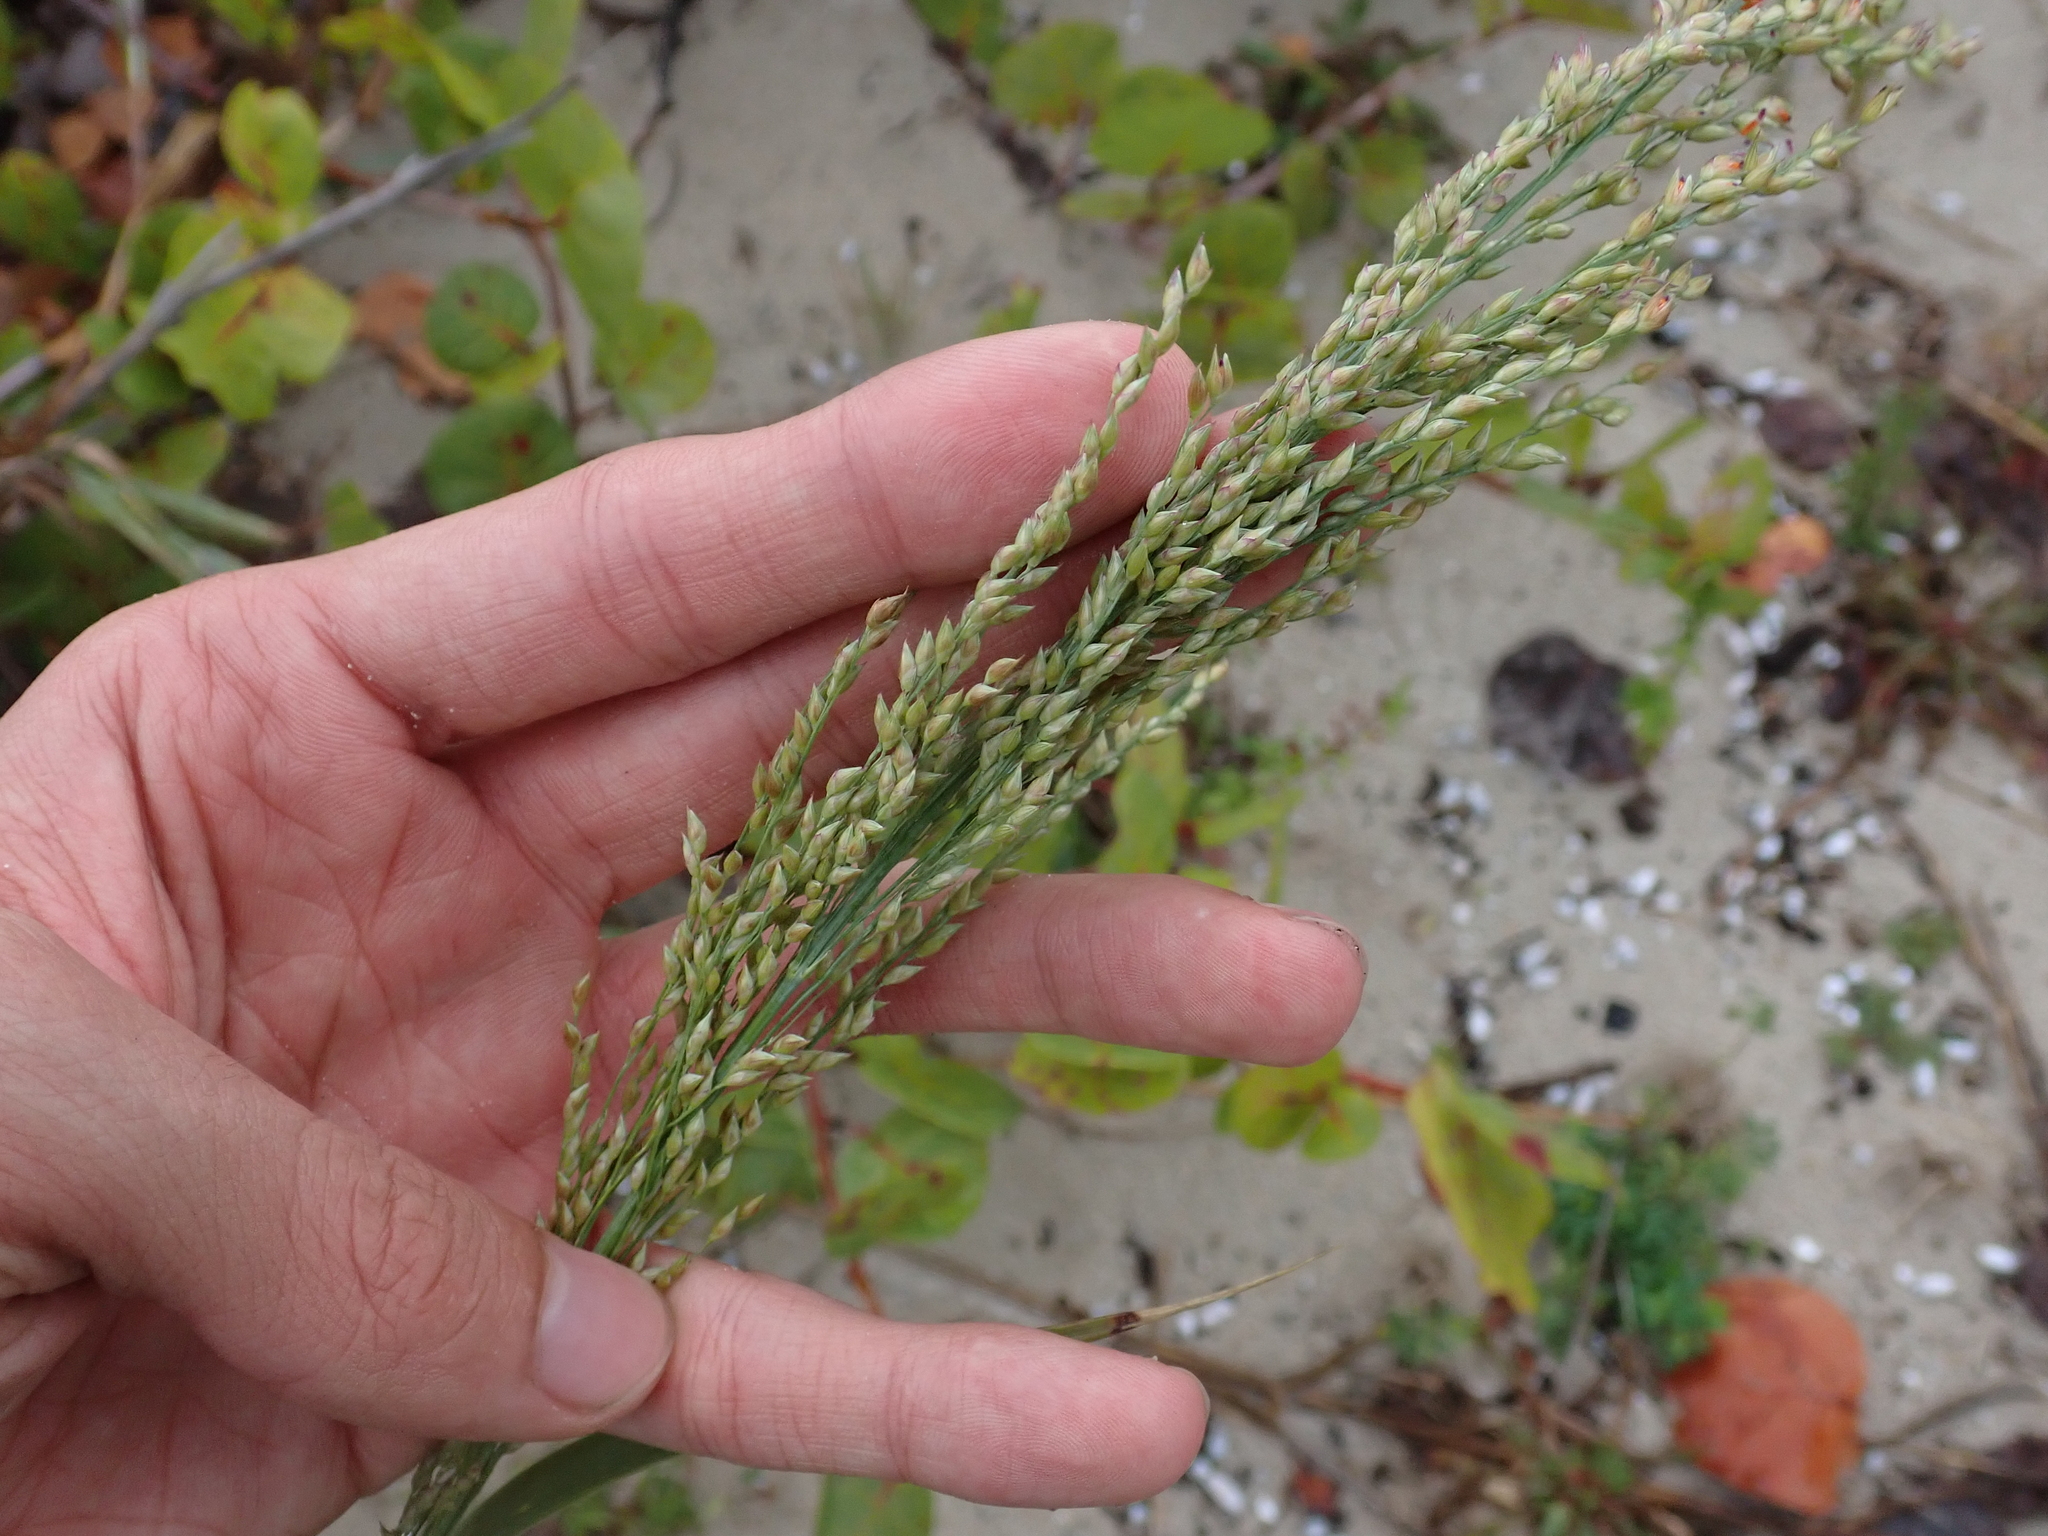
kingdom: Plantae
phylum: Tracheophyta
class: Liliopsida
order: Poales
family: Poaceae
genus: Panicum
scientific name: Panicum amarum
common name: Bitter panicum
